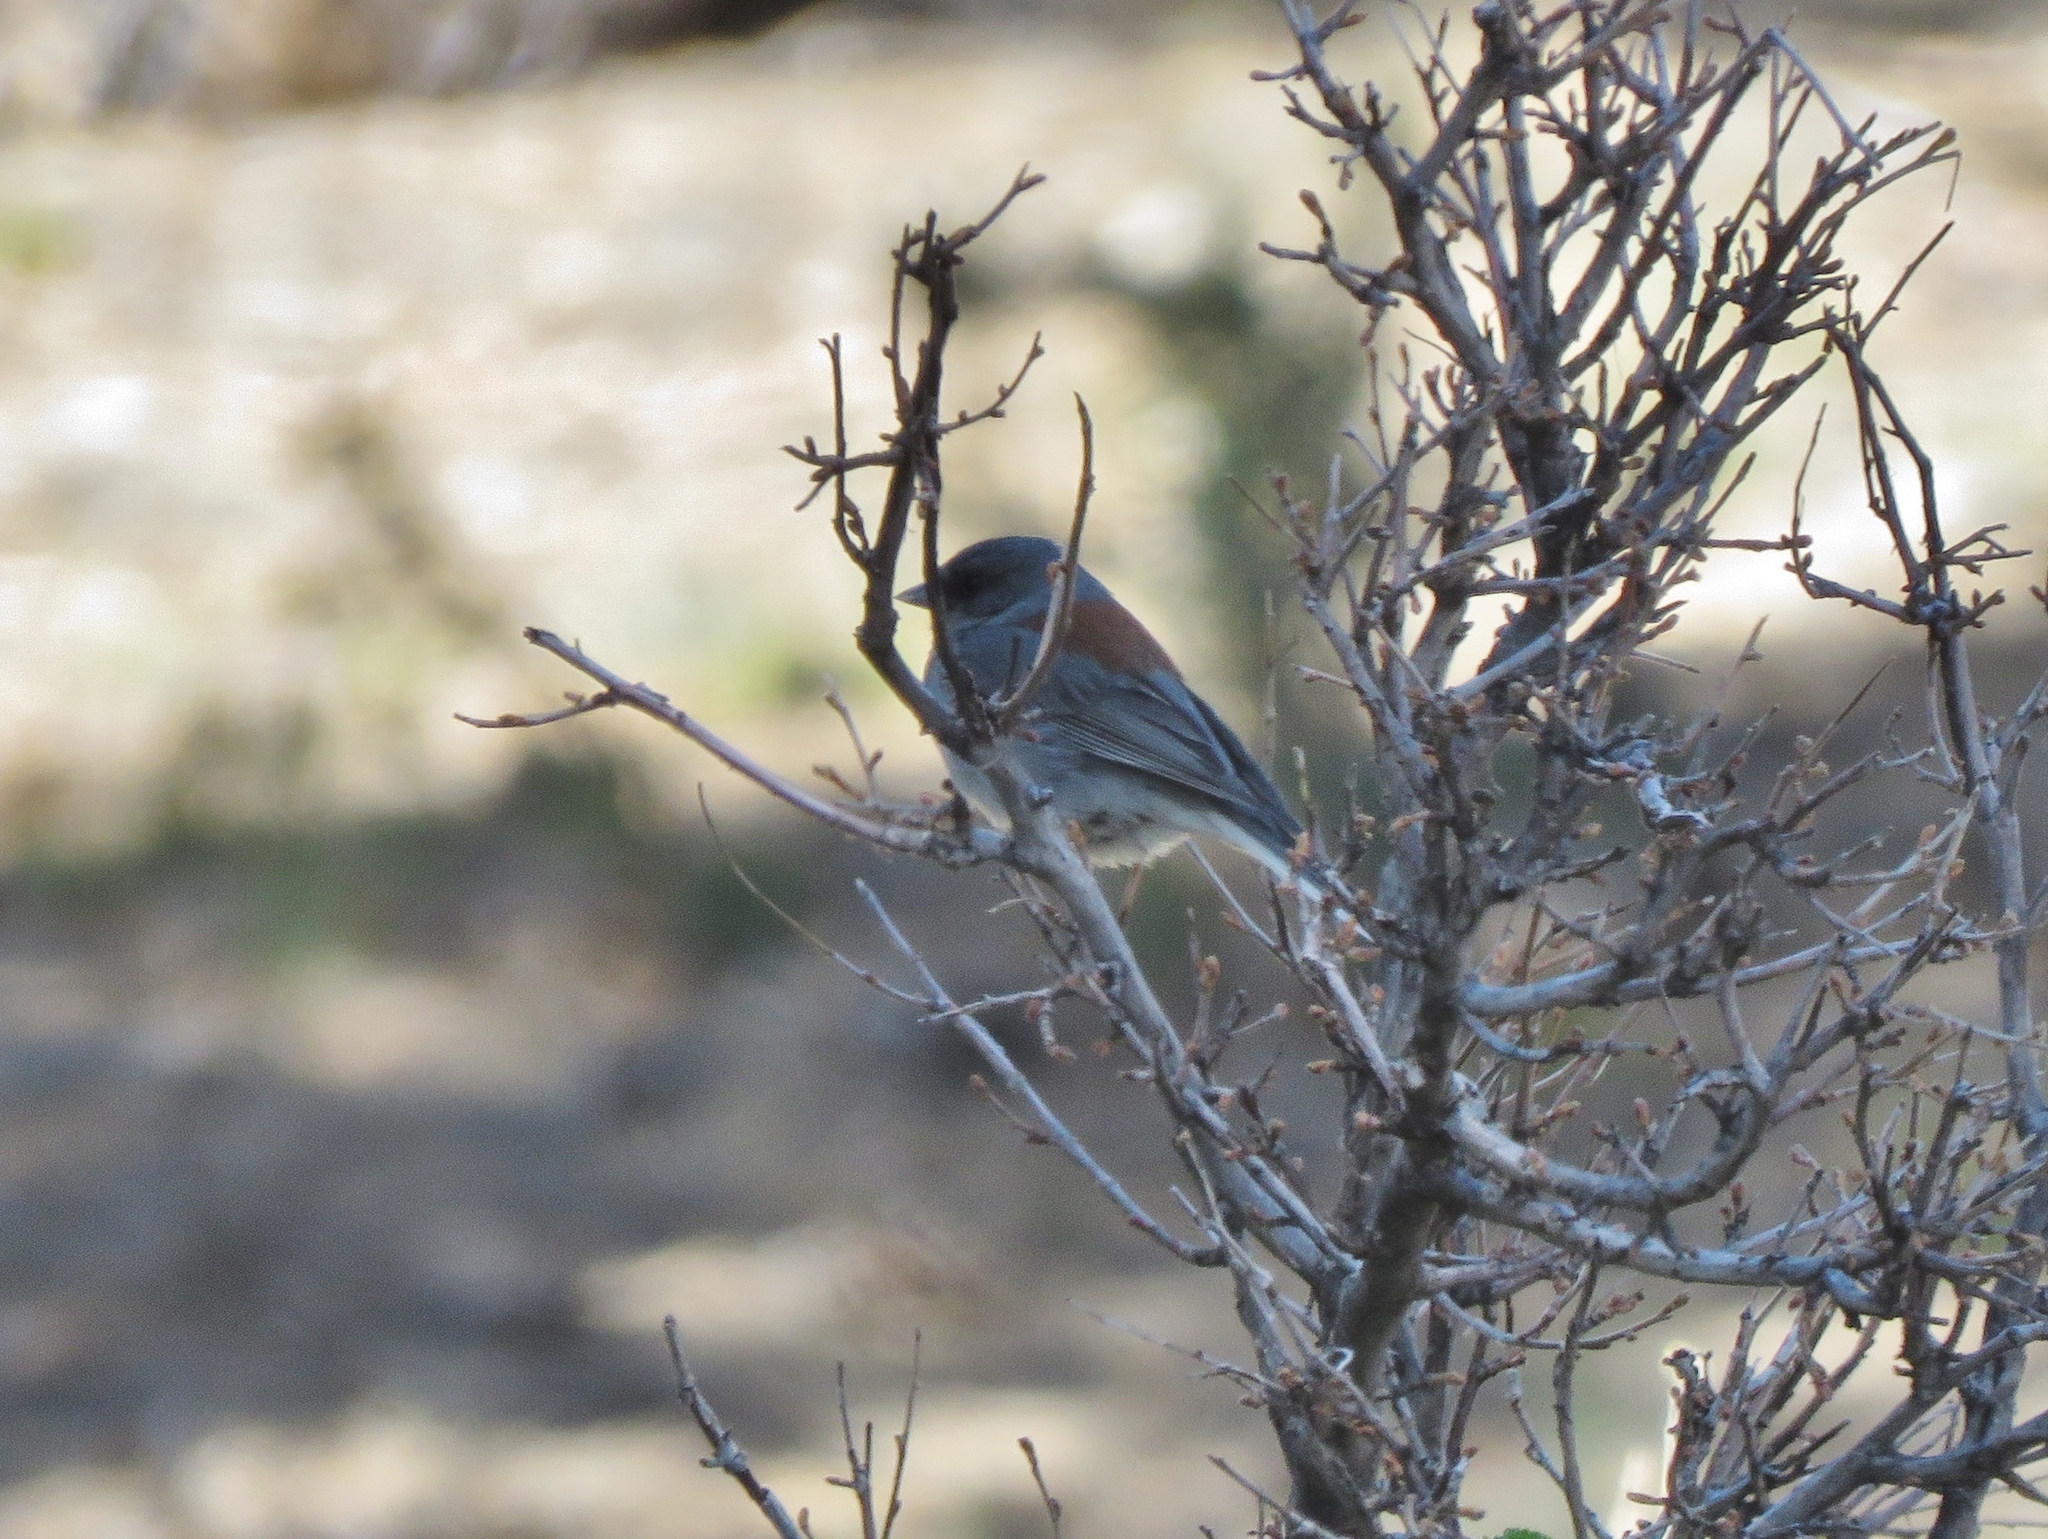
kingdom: Animalia
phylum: Chordata
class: Aves
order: Passeriformes
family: Passerellidae
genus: Junco
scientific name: Junco hyemalis
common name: Dark-eyed junco
